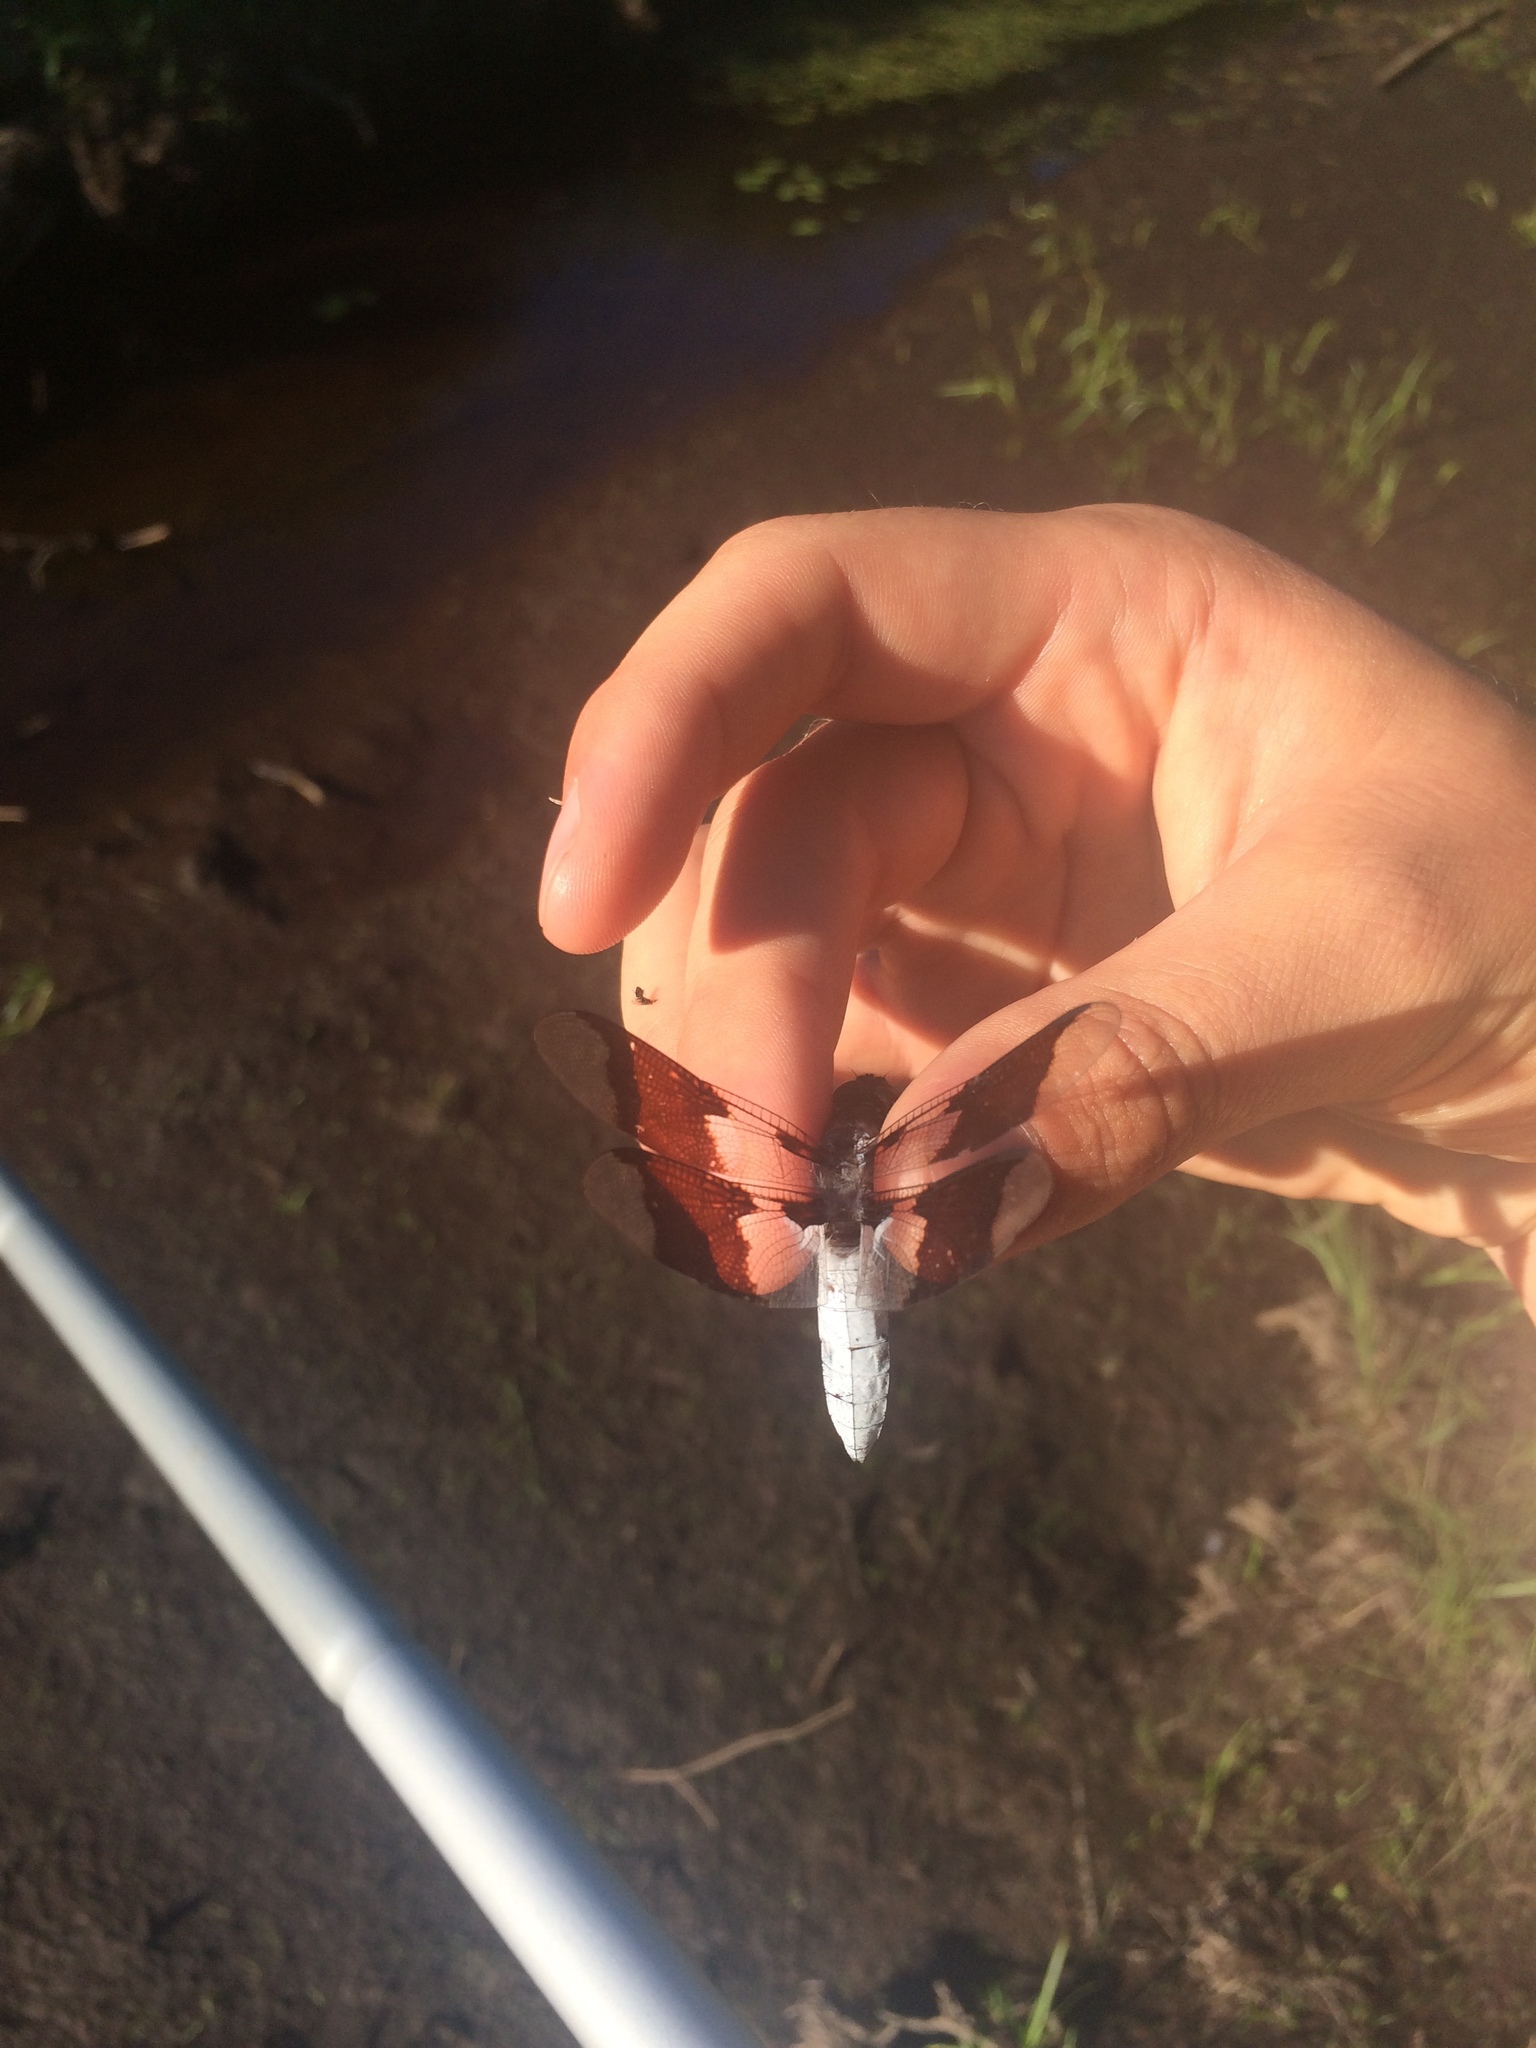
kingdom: Animalia
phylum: Arthropoda
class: Insecta
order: Odonata
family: Libellulidae
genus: Plathemis
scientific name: Plathemis lydia
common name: Common whitetail
